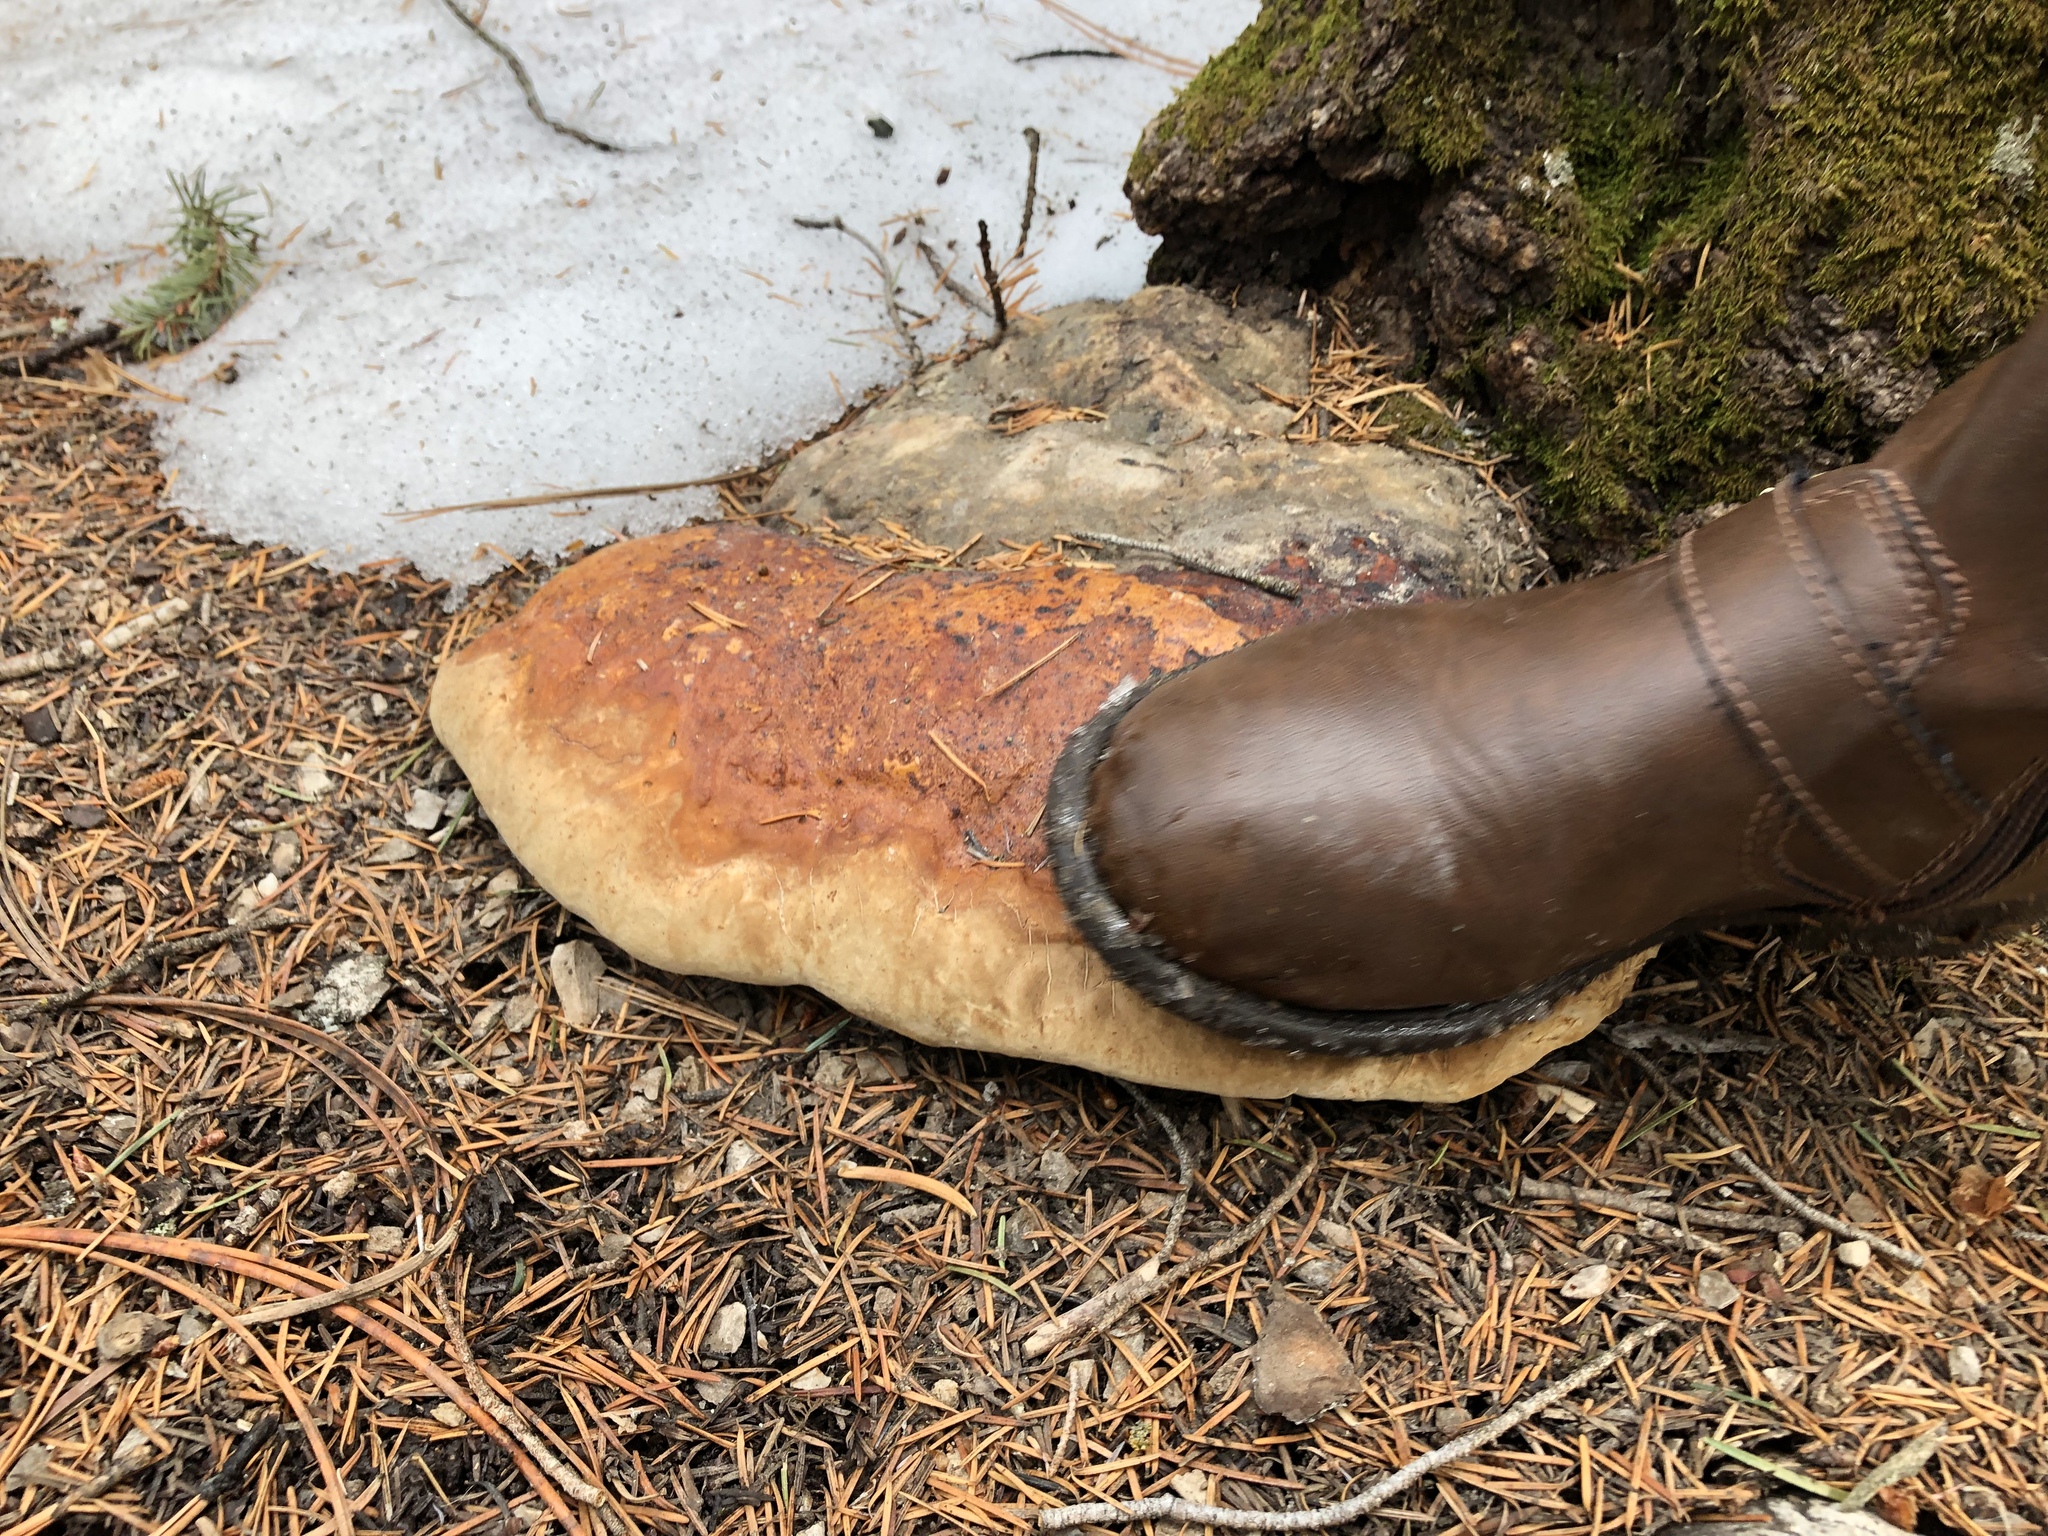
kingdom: Fungi
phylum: Basidiomycota
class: Agaricomycetes
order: Polyporales
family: Fomitopsidaceae
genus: Fomitopsis
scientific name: Fomitopsis schrenkii
